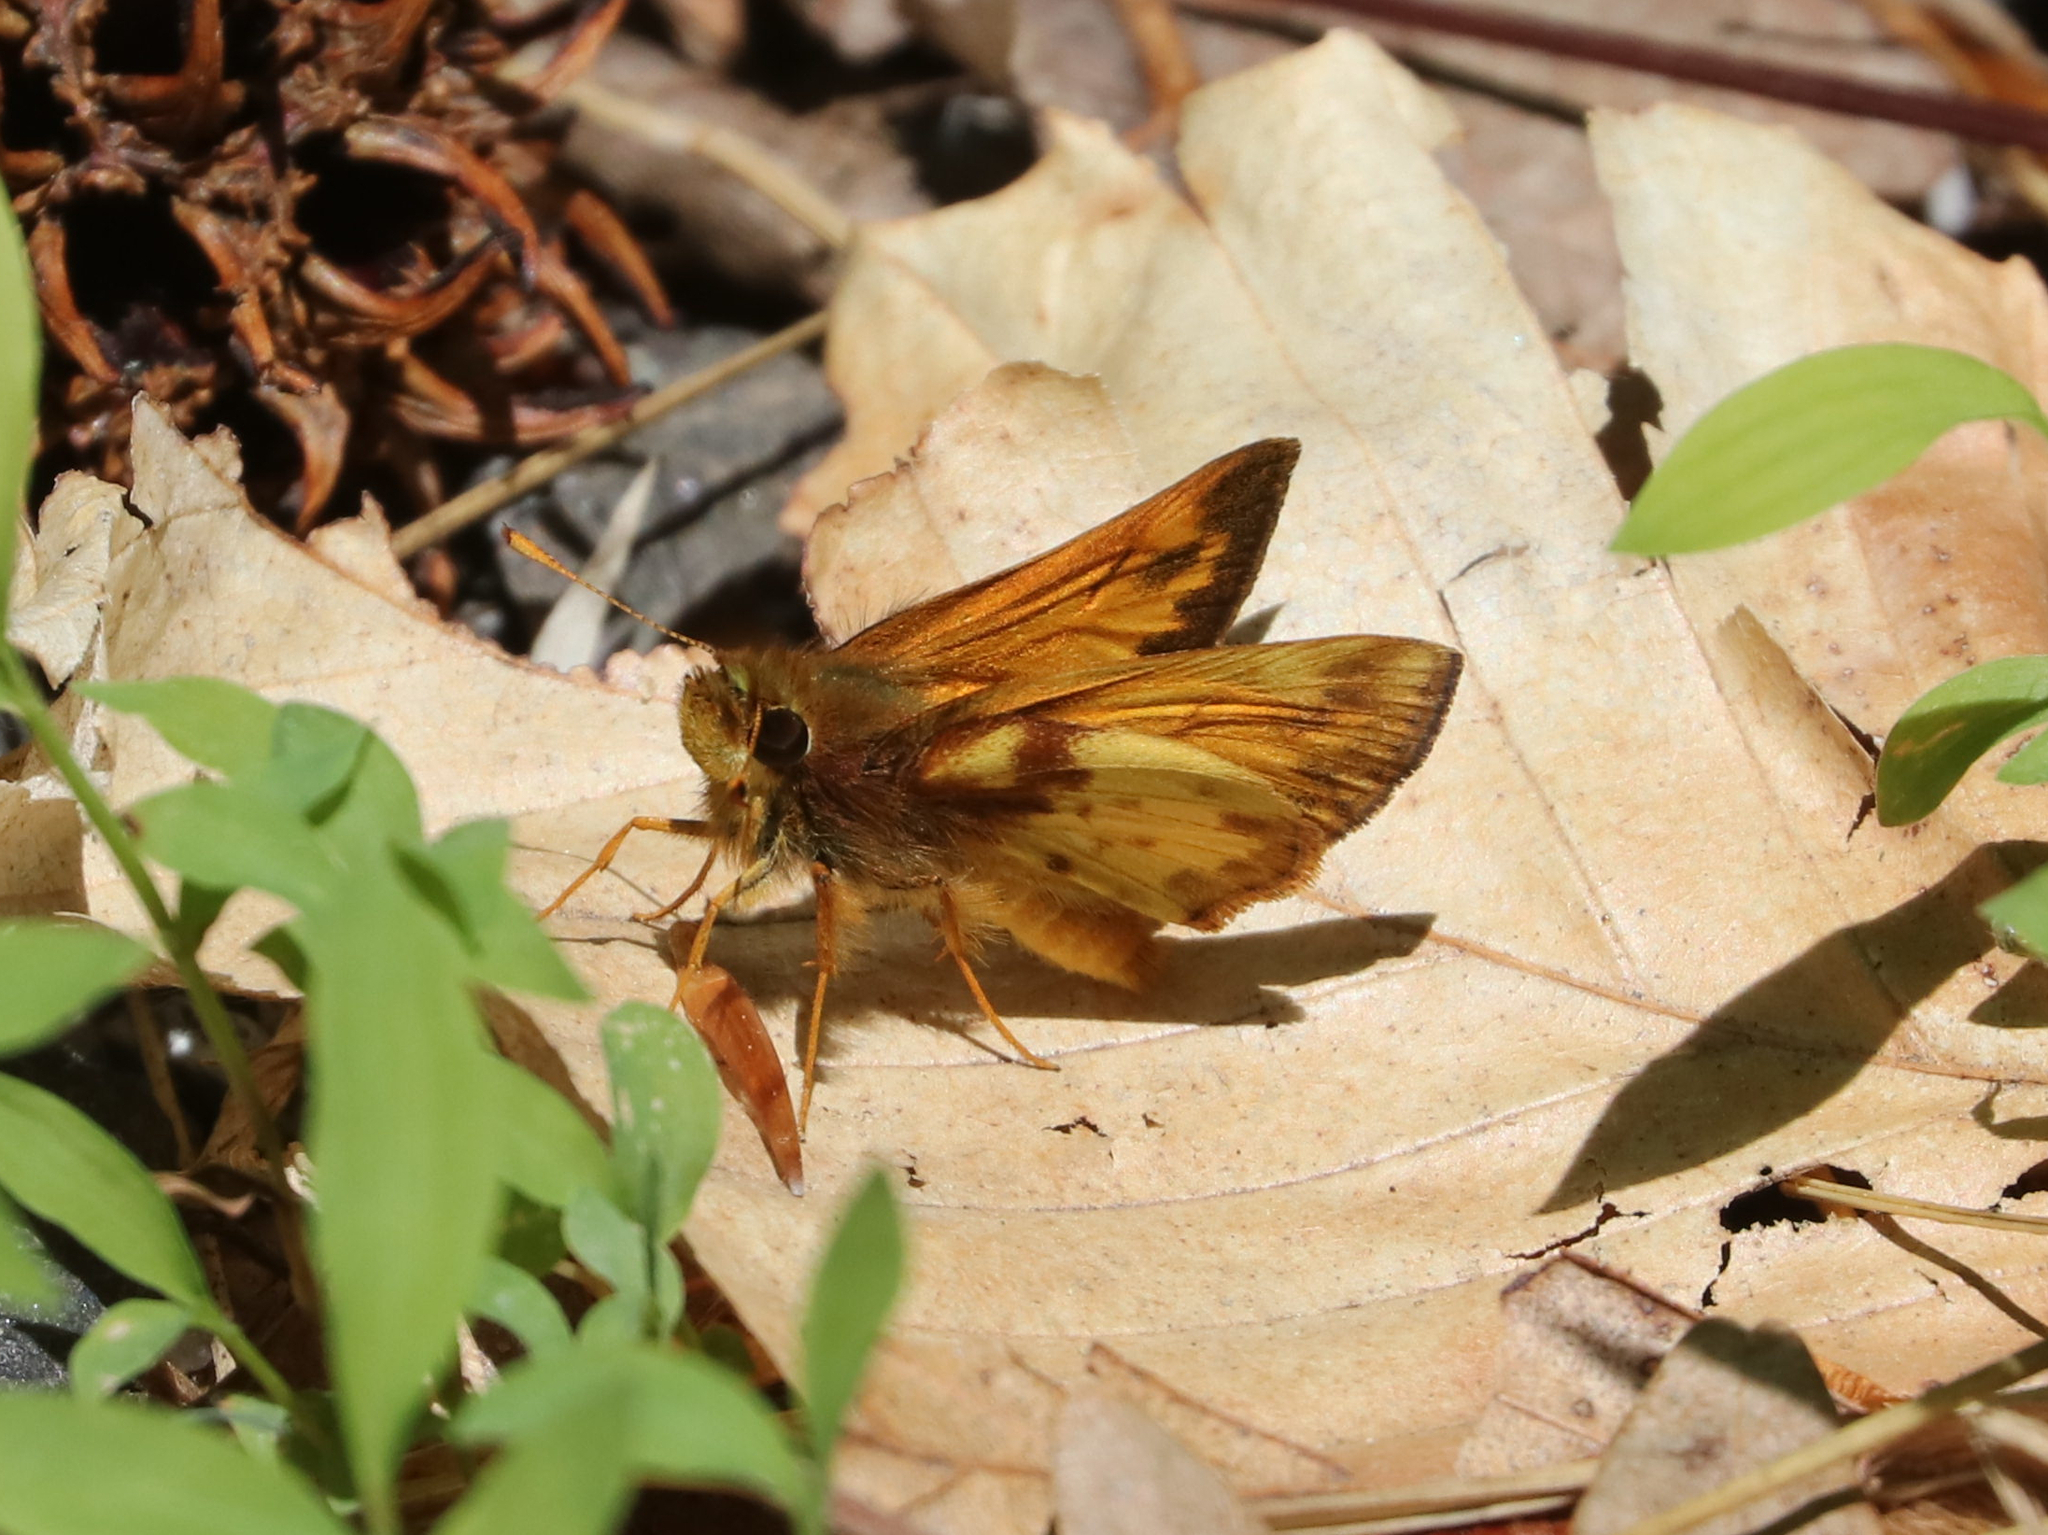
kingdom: Animalia
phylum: Arthropoda
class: Insecta
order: Lepidoptera
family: Hesperiidae
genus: Lon
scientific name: Lon zabulon
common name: Zabulon skipper
